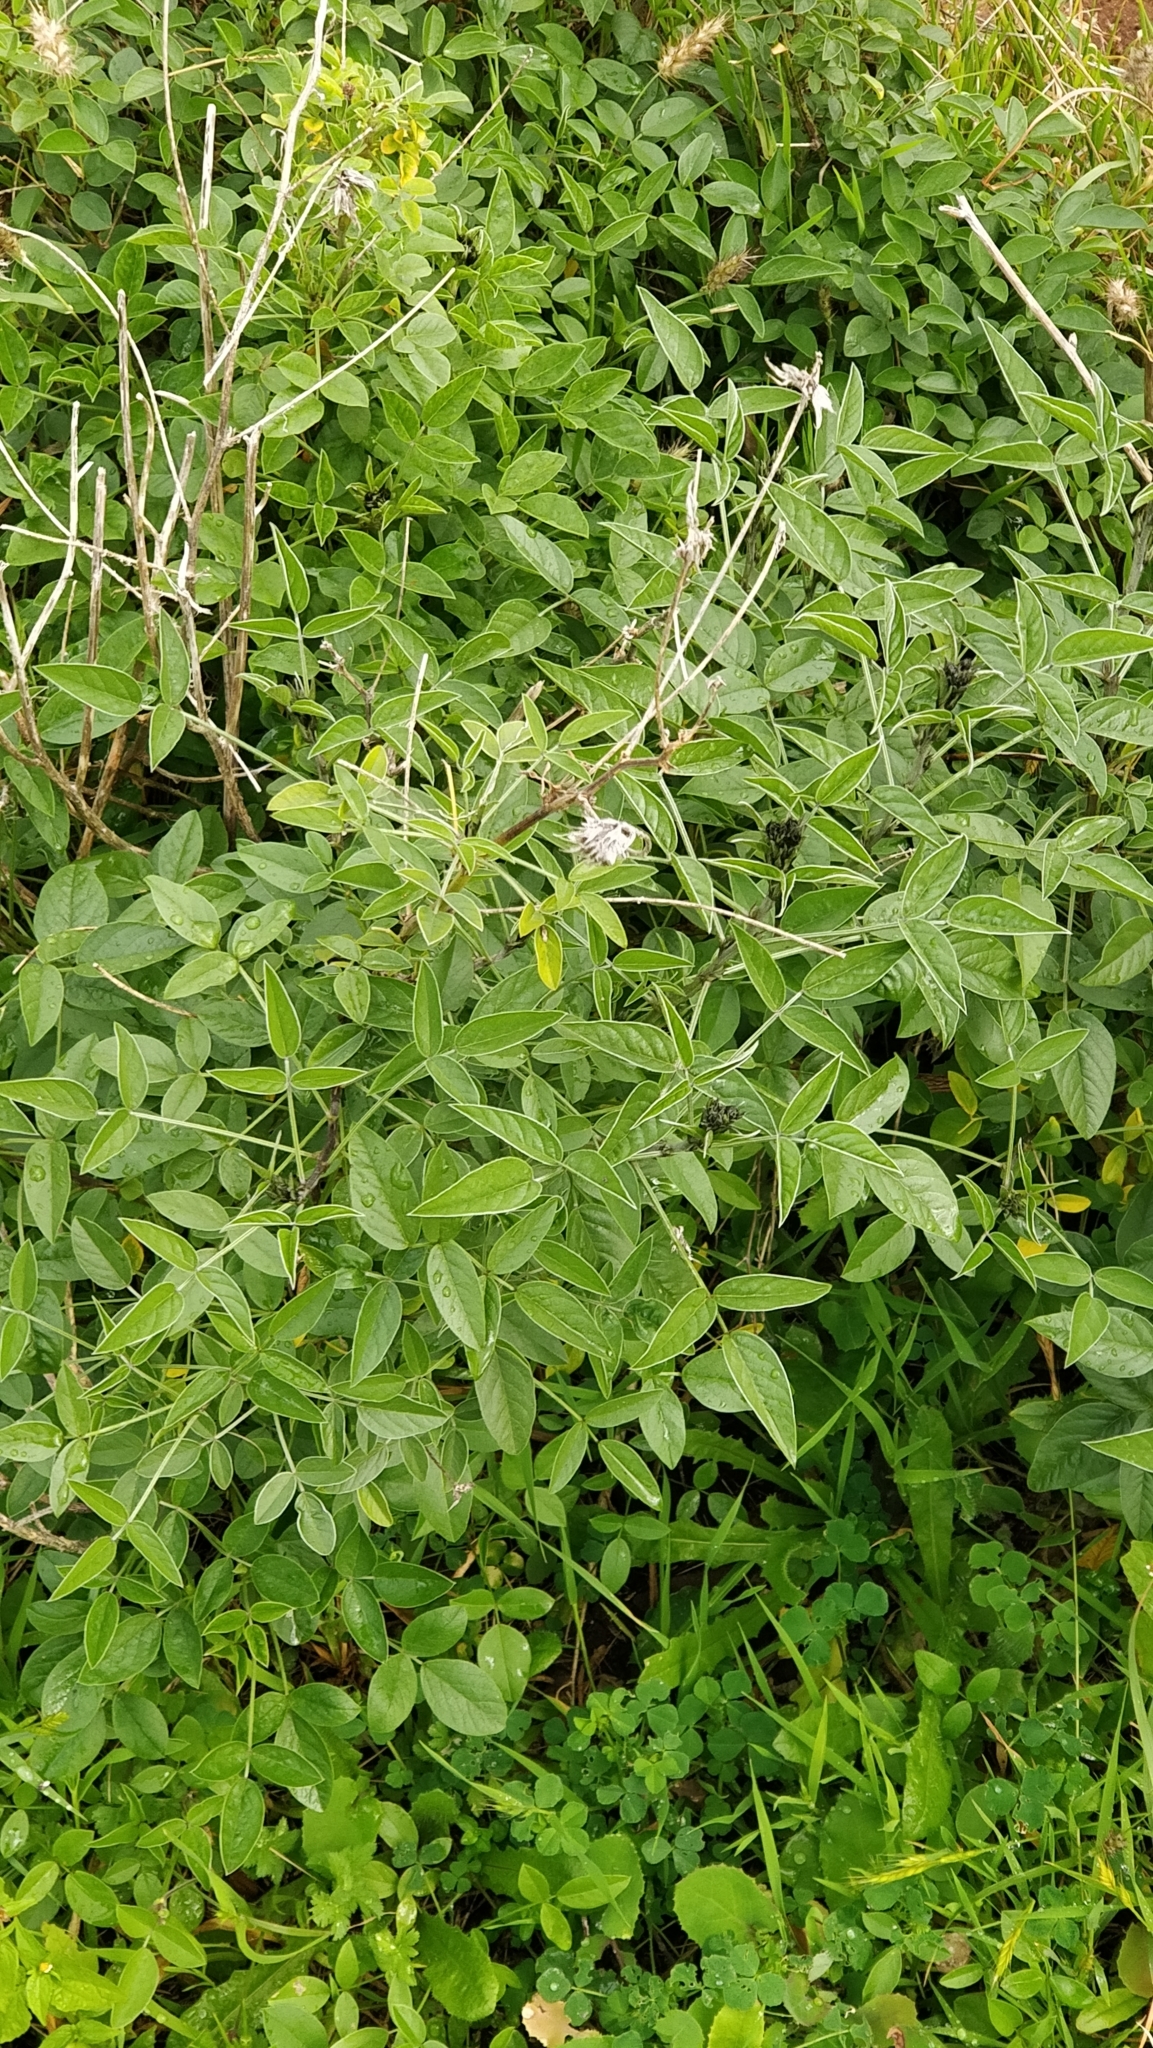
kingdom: Plantae
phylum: Tracheophyta
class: Magnoliopsida
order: Fabales
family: Fabaceae
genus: Bituminaria
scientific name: Bituminaria bituminosa
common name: Arabian pea
